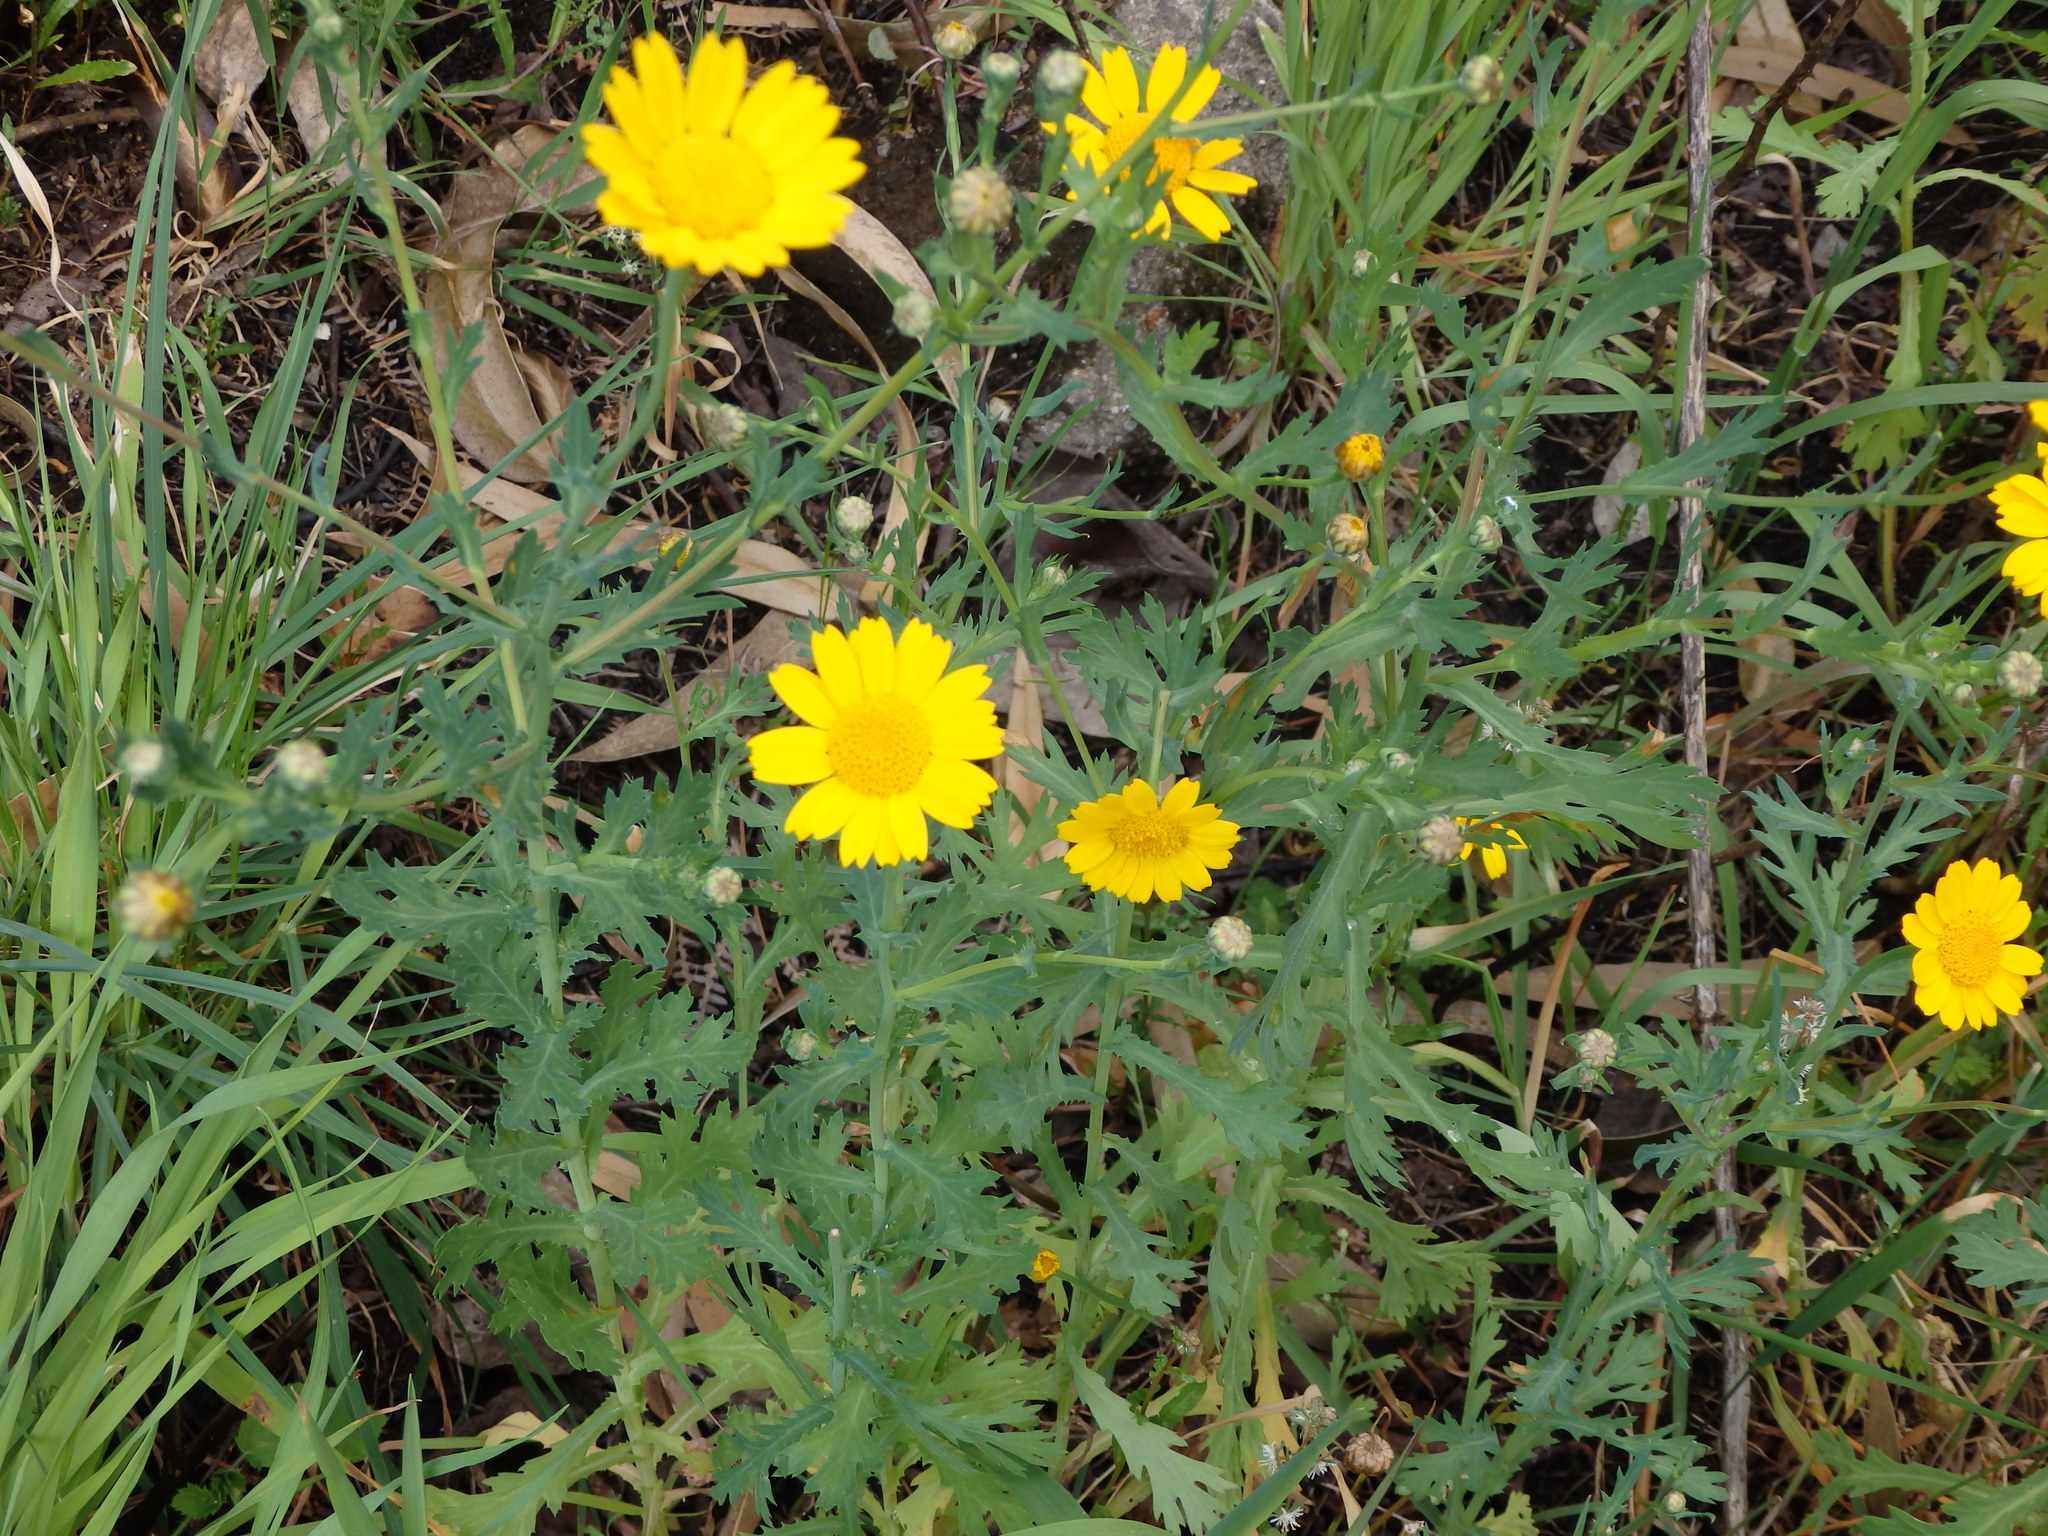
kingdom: Plantae
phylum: Tracheophyta
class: Magnoliopsida
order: Asterales
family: Asteraceae
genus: Glebionis
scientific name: Glebionis segetum
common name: Corndaisy
